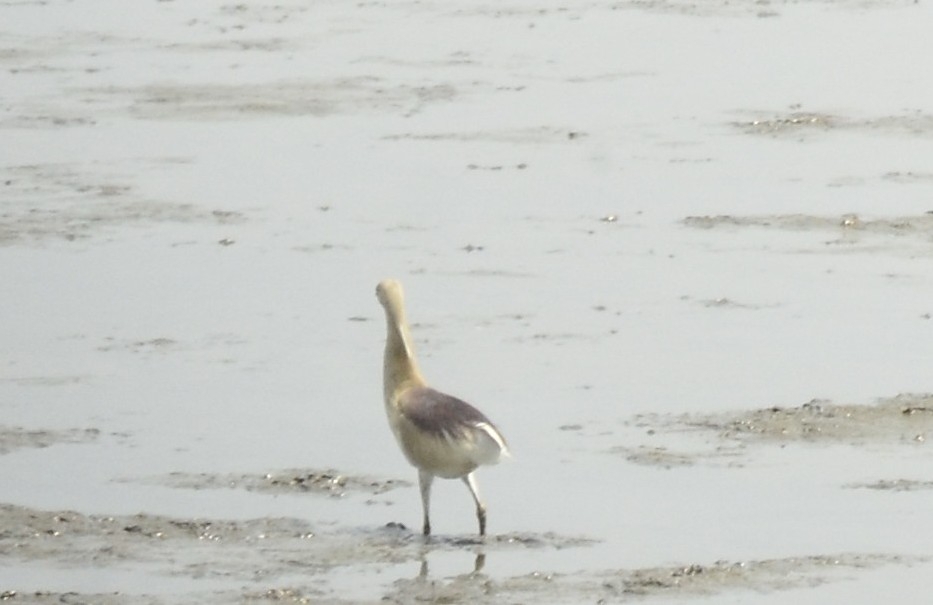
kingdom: Animalia
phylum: Chordata
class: Aves
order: Pelecaniformes
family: Ardeidae
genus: Ardeola
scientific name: Ardeola grayii
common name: Indian pond heron
